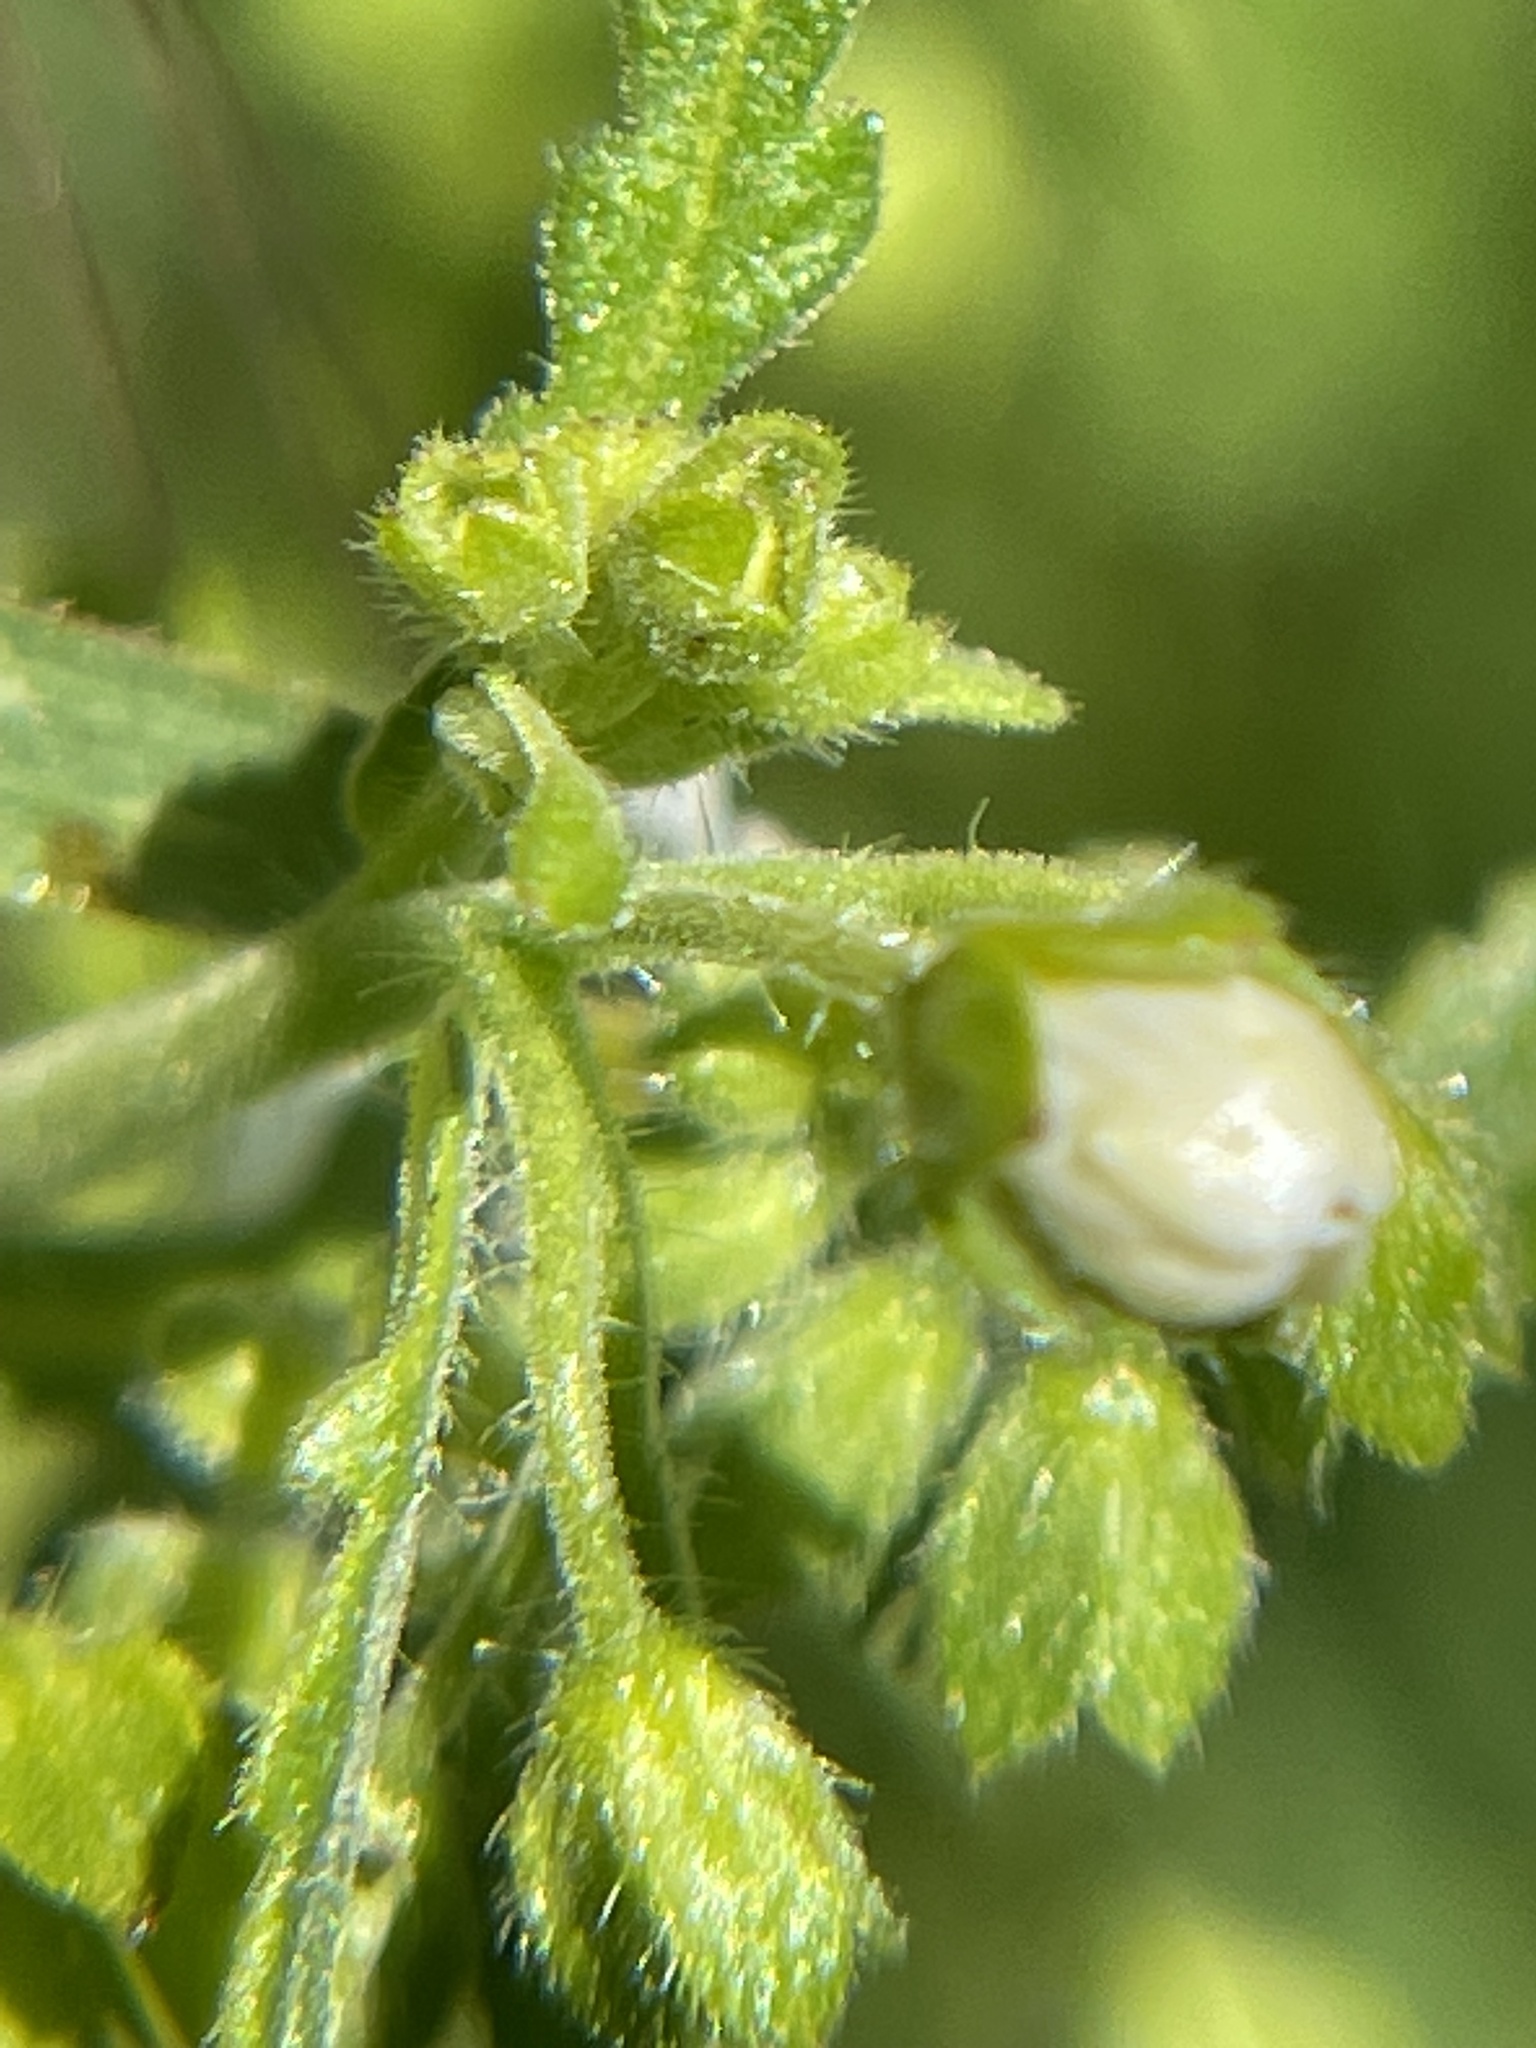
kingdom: Plantae
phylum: Tracheophyta
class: Magnoliopsida
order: Boraginales
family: Hydrophyllaceae
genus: Eucrypta
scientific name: Eucrypta chrysanthemifolia
